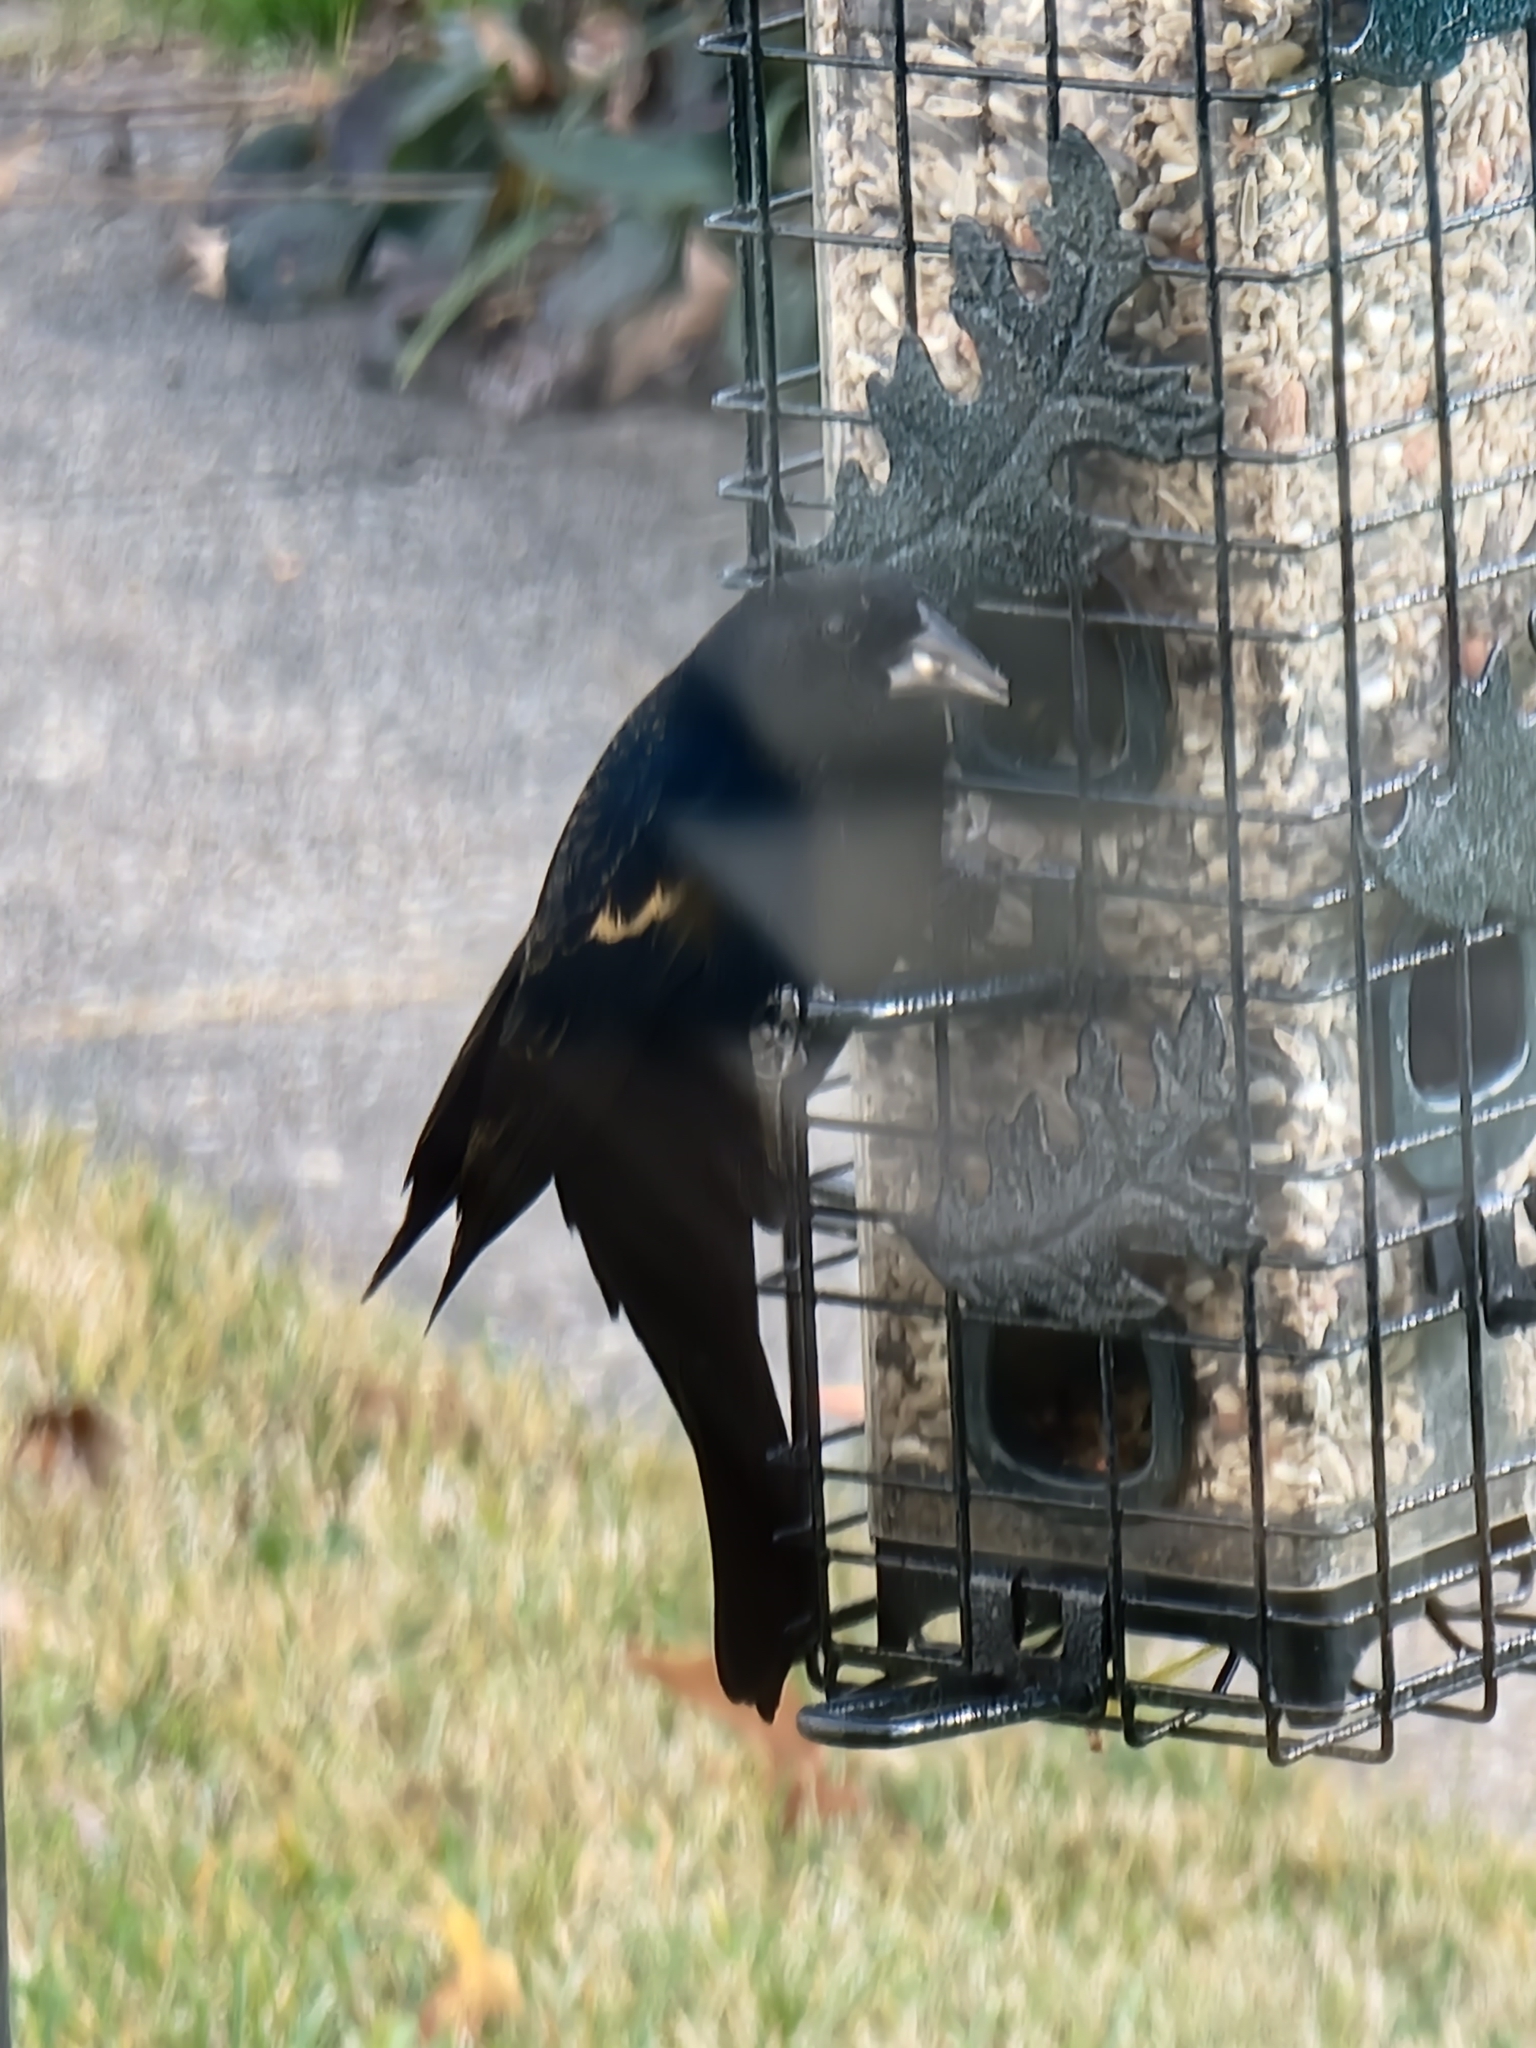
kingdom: Animalia
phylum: Chordata
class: Aves
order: Passeriformes
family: Icteridae
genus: Agelaius
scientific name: Agelaius phoeniceus
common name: Red-winged blackbird
